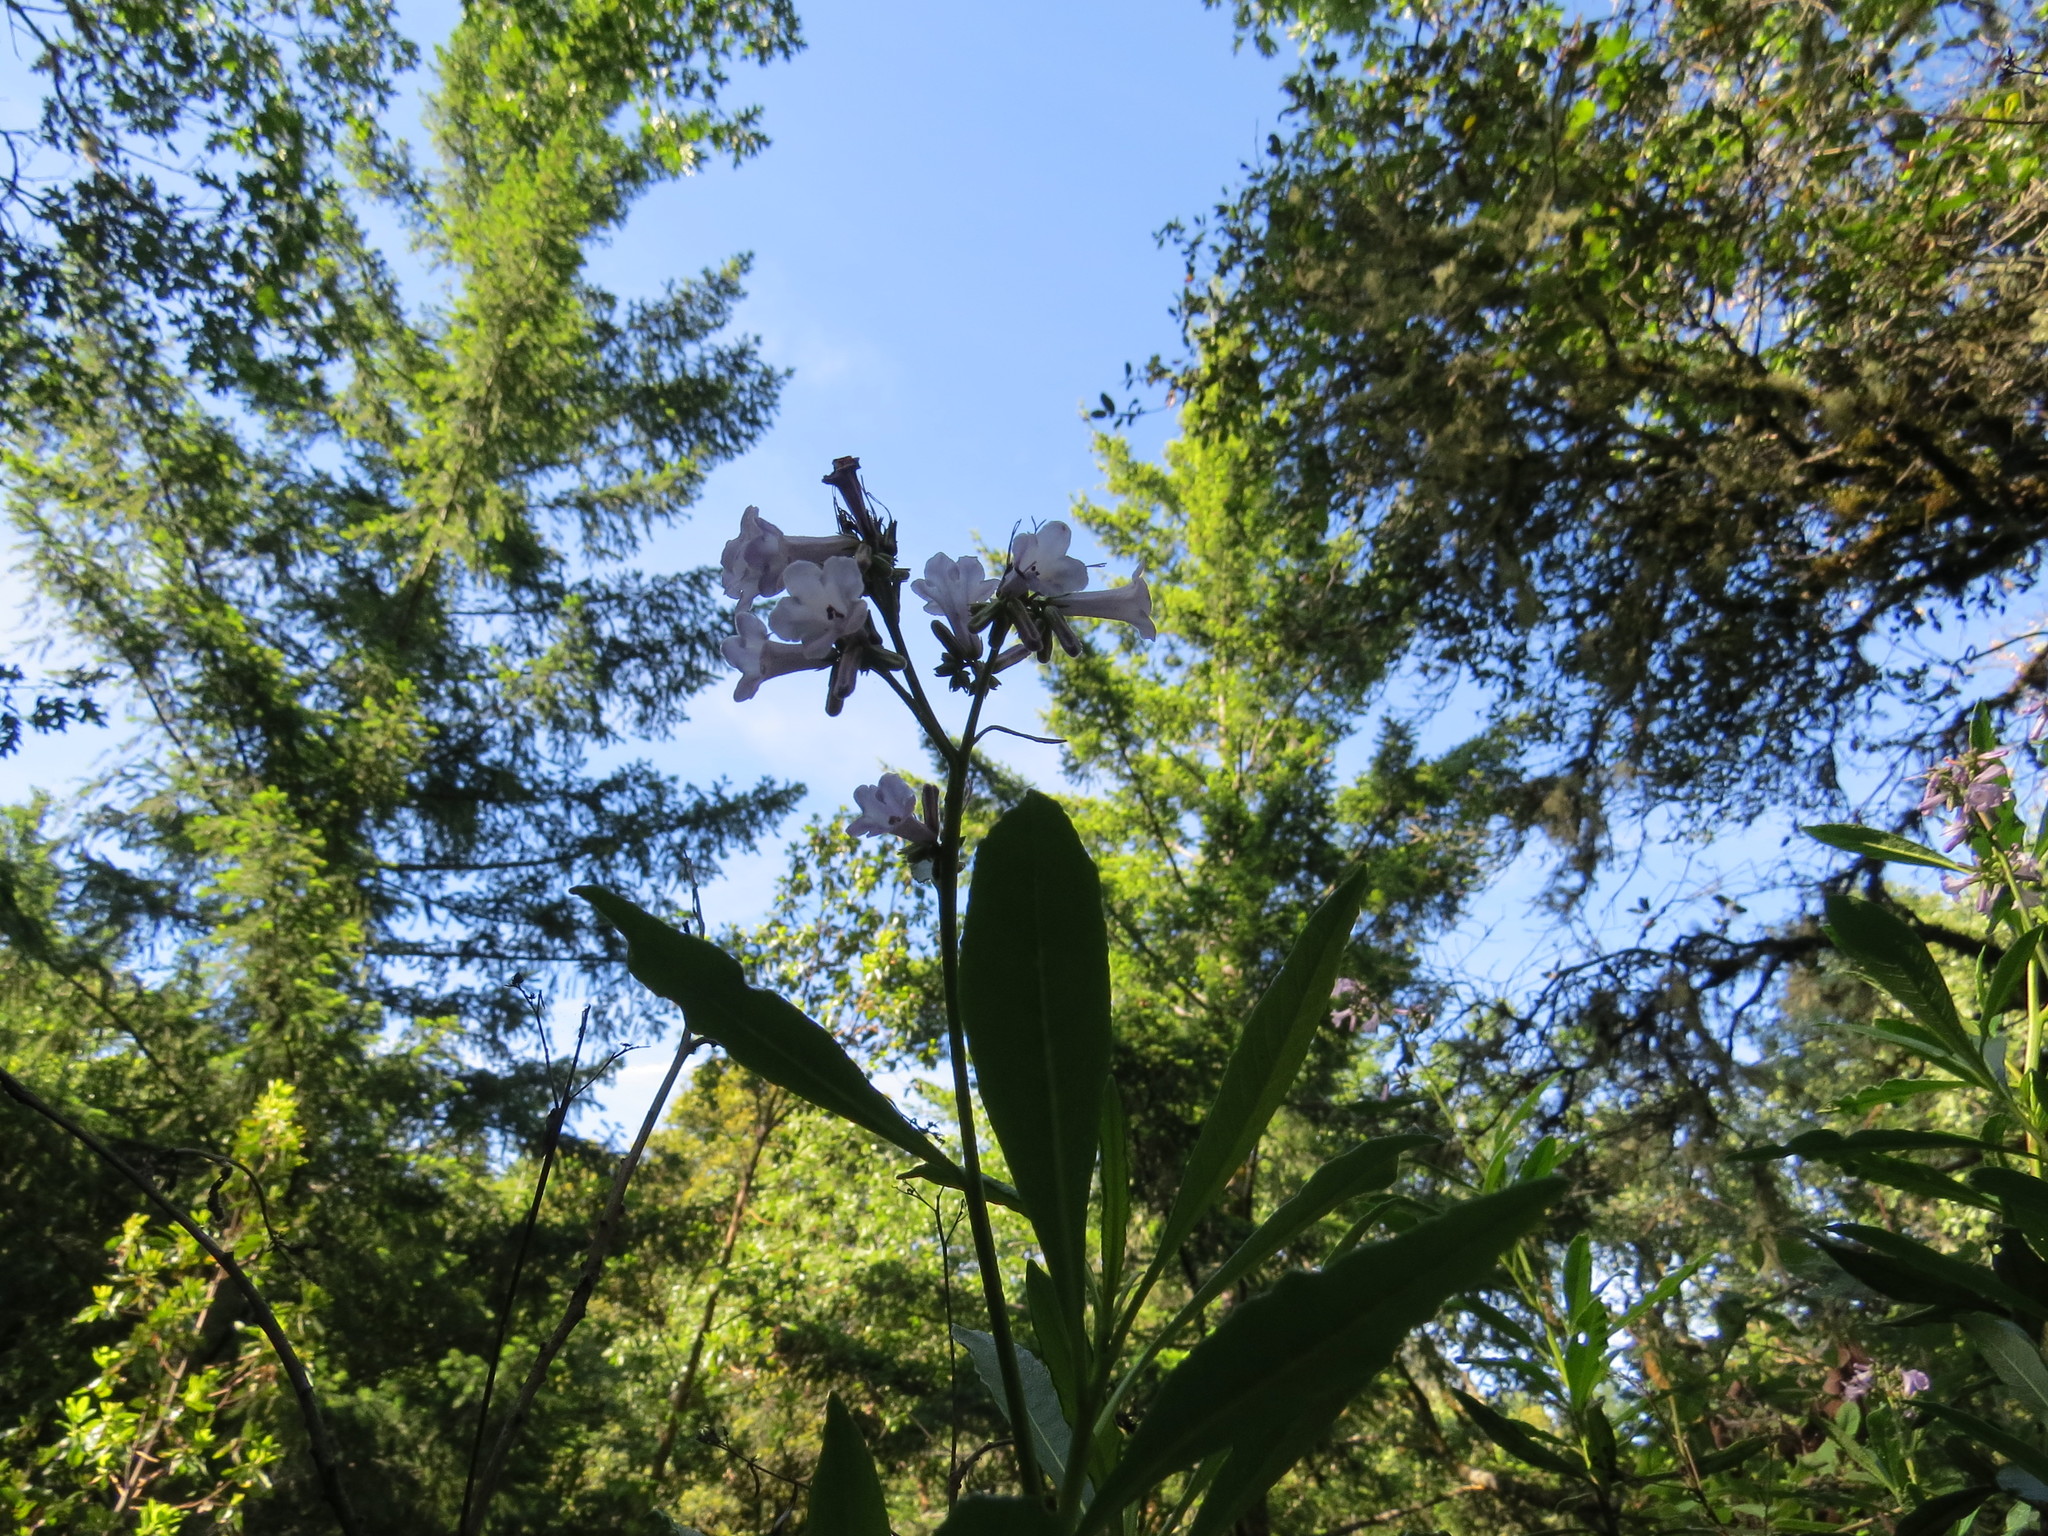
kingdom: Plantae
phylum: Tracheophyta
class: Magnoliopsida
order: Boraginales
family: Namaceae
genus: Eriodictyon
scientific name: Eriodictyon californicum
